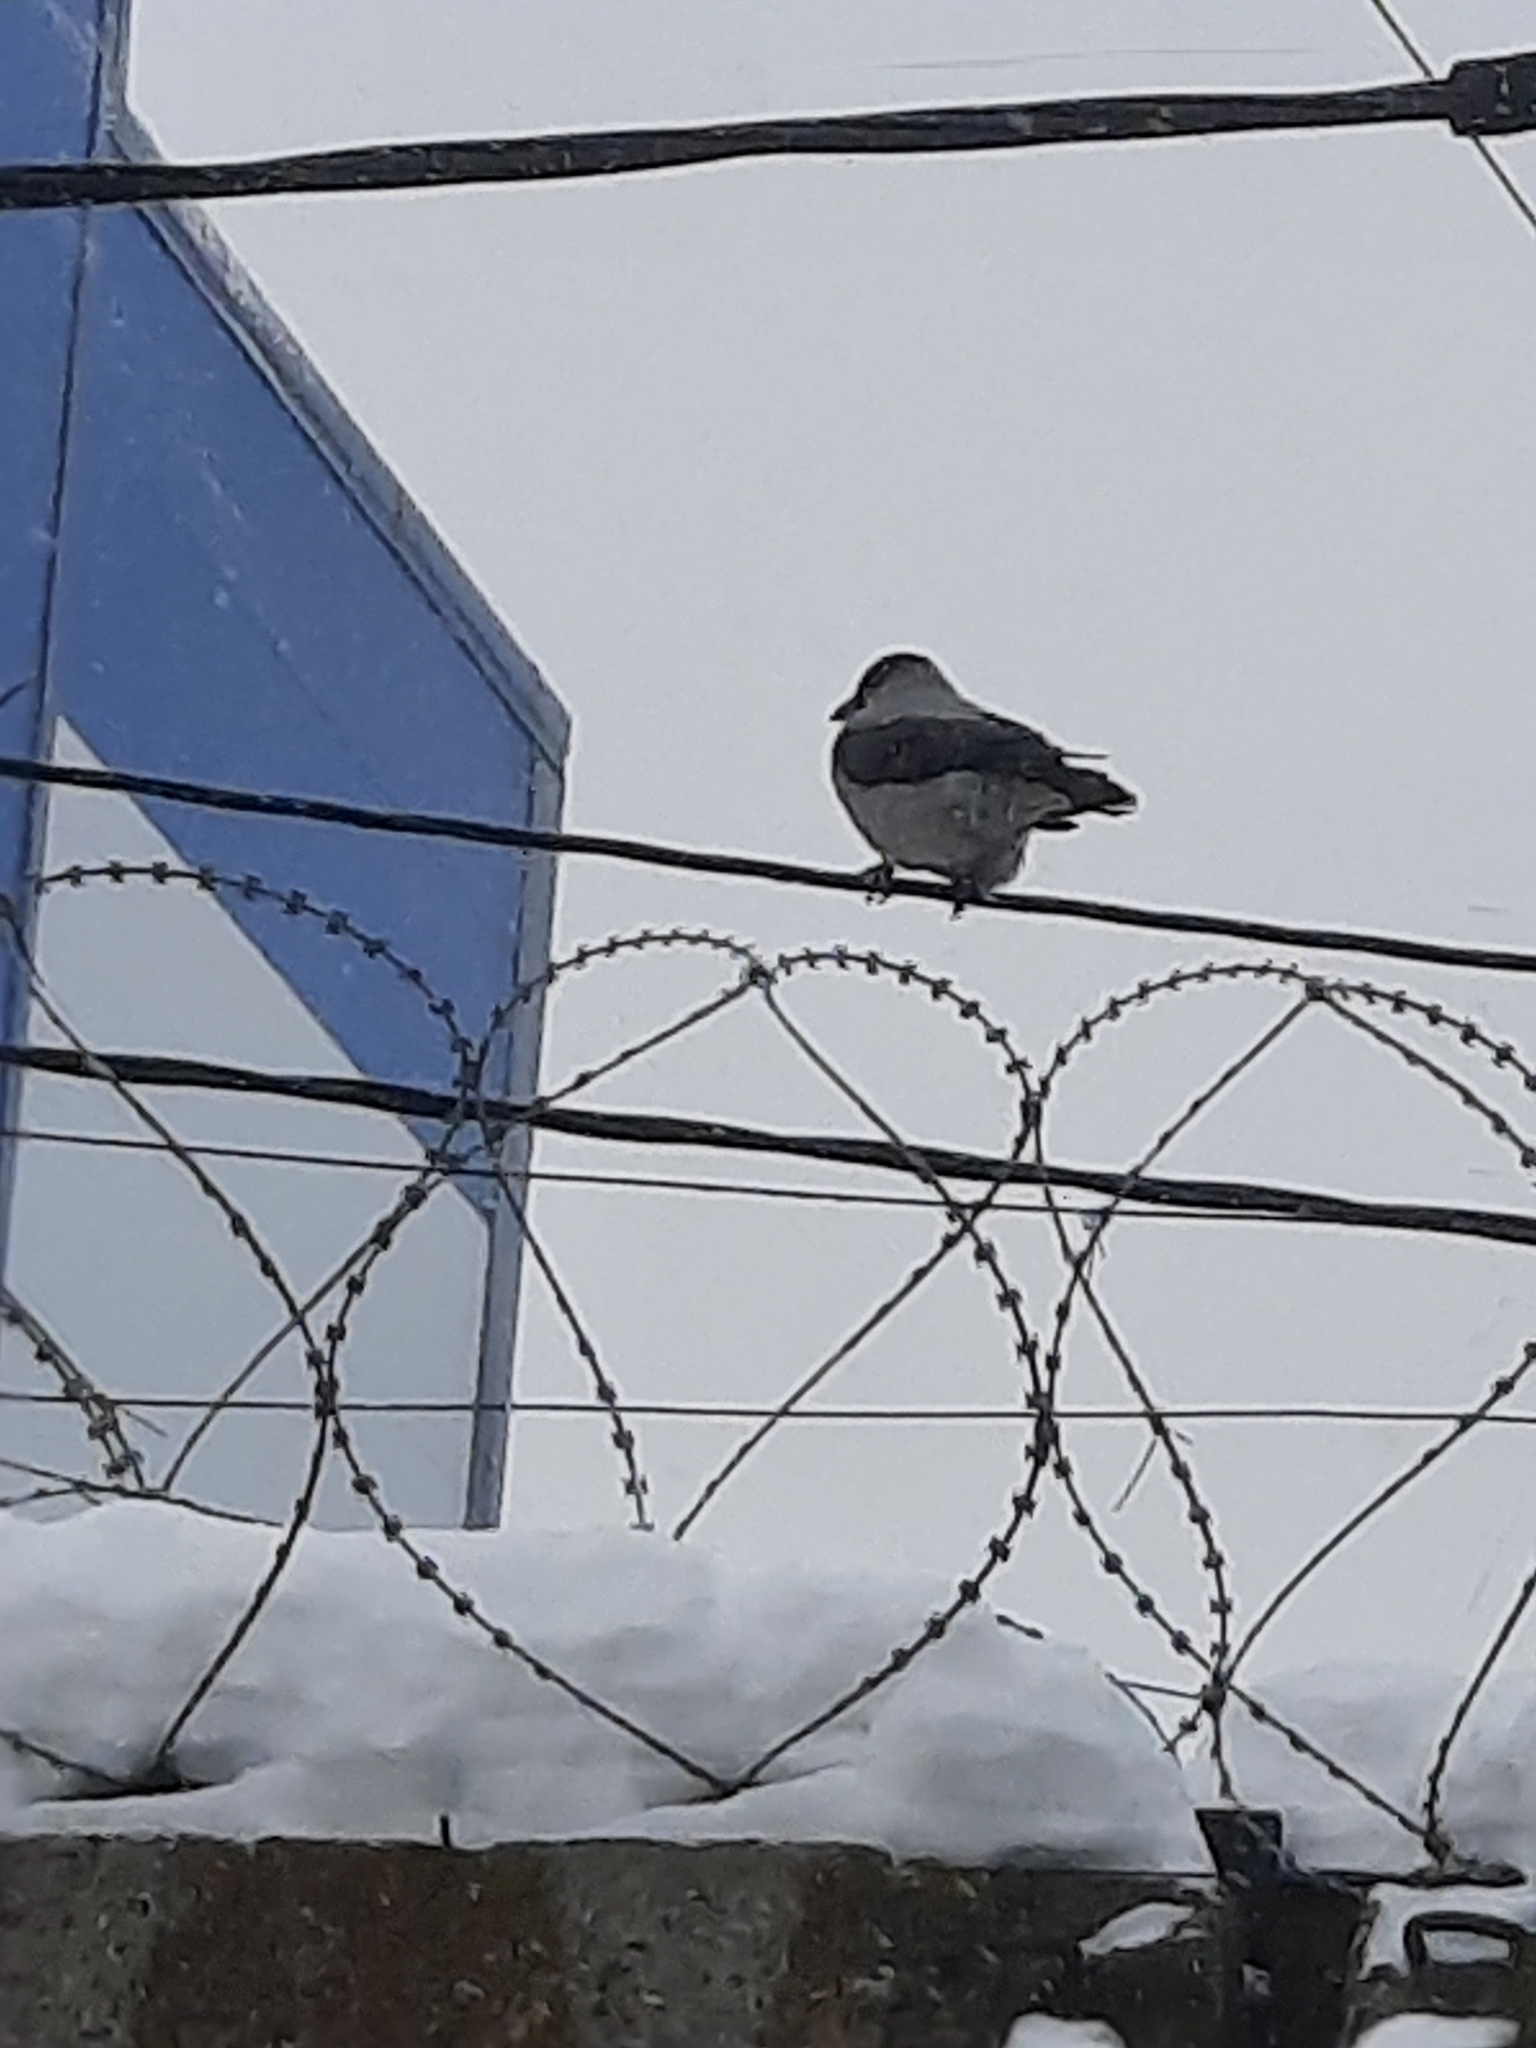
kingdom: Animalia
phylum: Chordata
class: Aves
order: Passeriformes
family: Corvidae
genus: Corvus
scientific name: Corvus cornix
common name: Hooded crow
